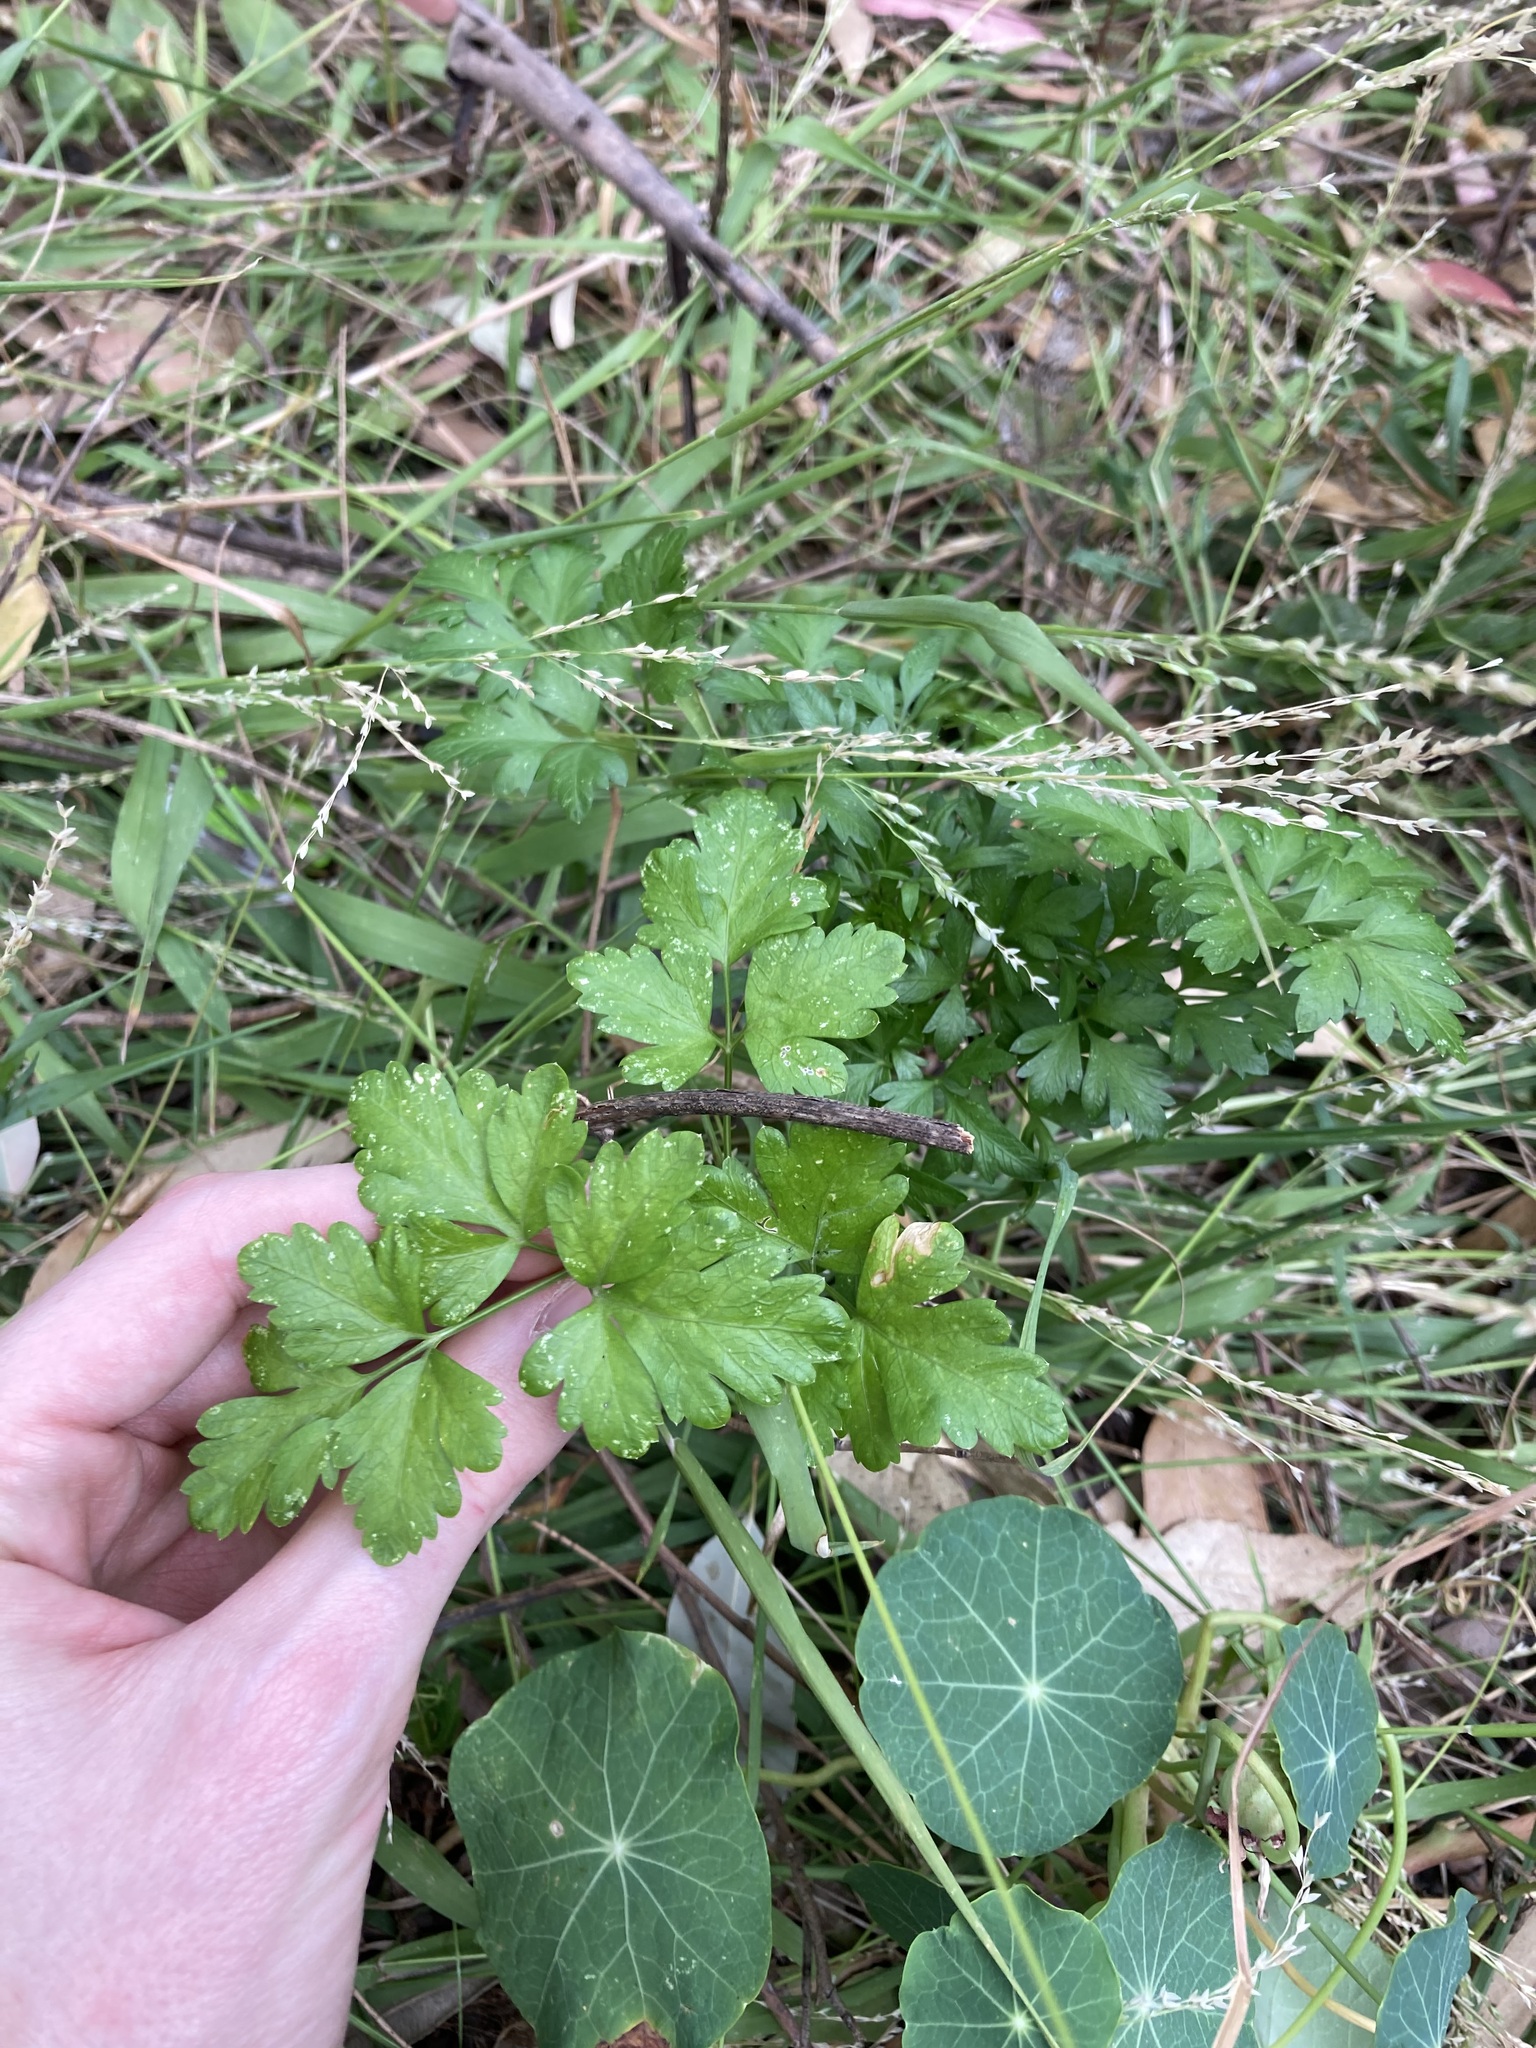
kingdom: Plantae
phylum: Tracheophyta
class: Magnoliopsida
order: Apiales
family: Apiaceae
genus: Petroselinum
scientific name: Petroselinum crispum
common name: Parsley
